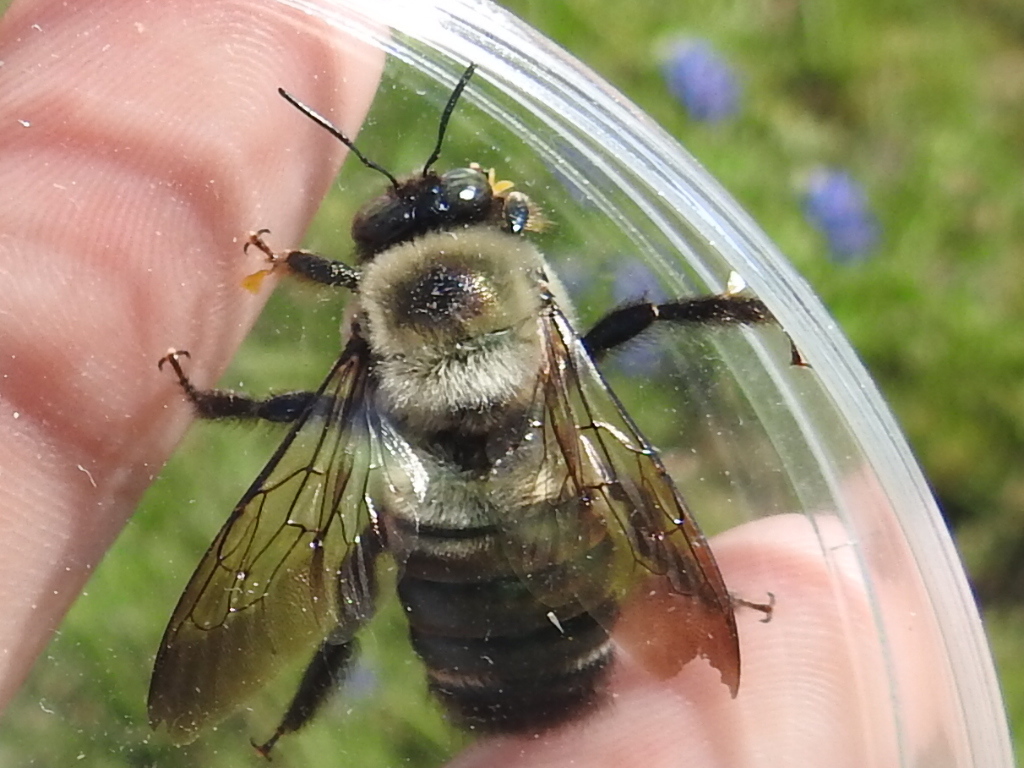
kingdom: Animalia
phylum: Arthropoda
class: Insecta
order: Hymenoptera
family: Apidae
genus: Xylocopa
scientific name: Xylocopa virginica
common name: Carpenter bee
